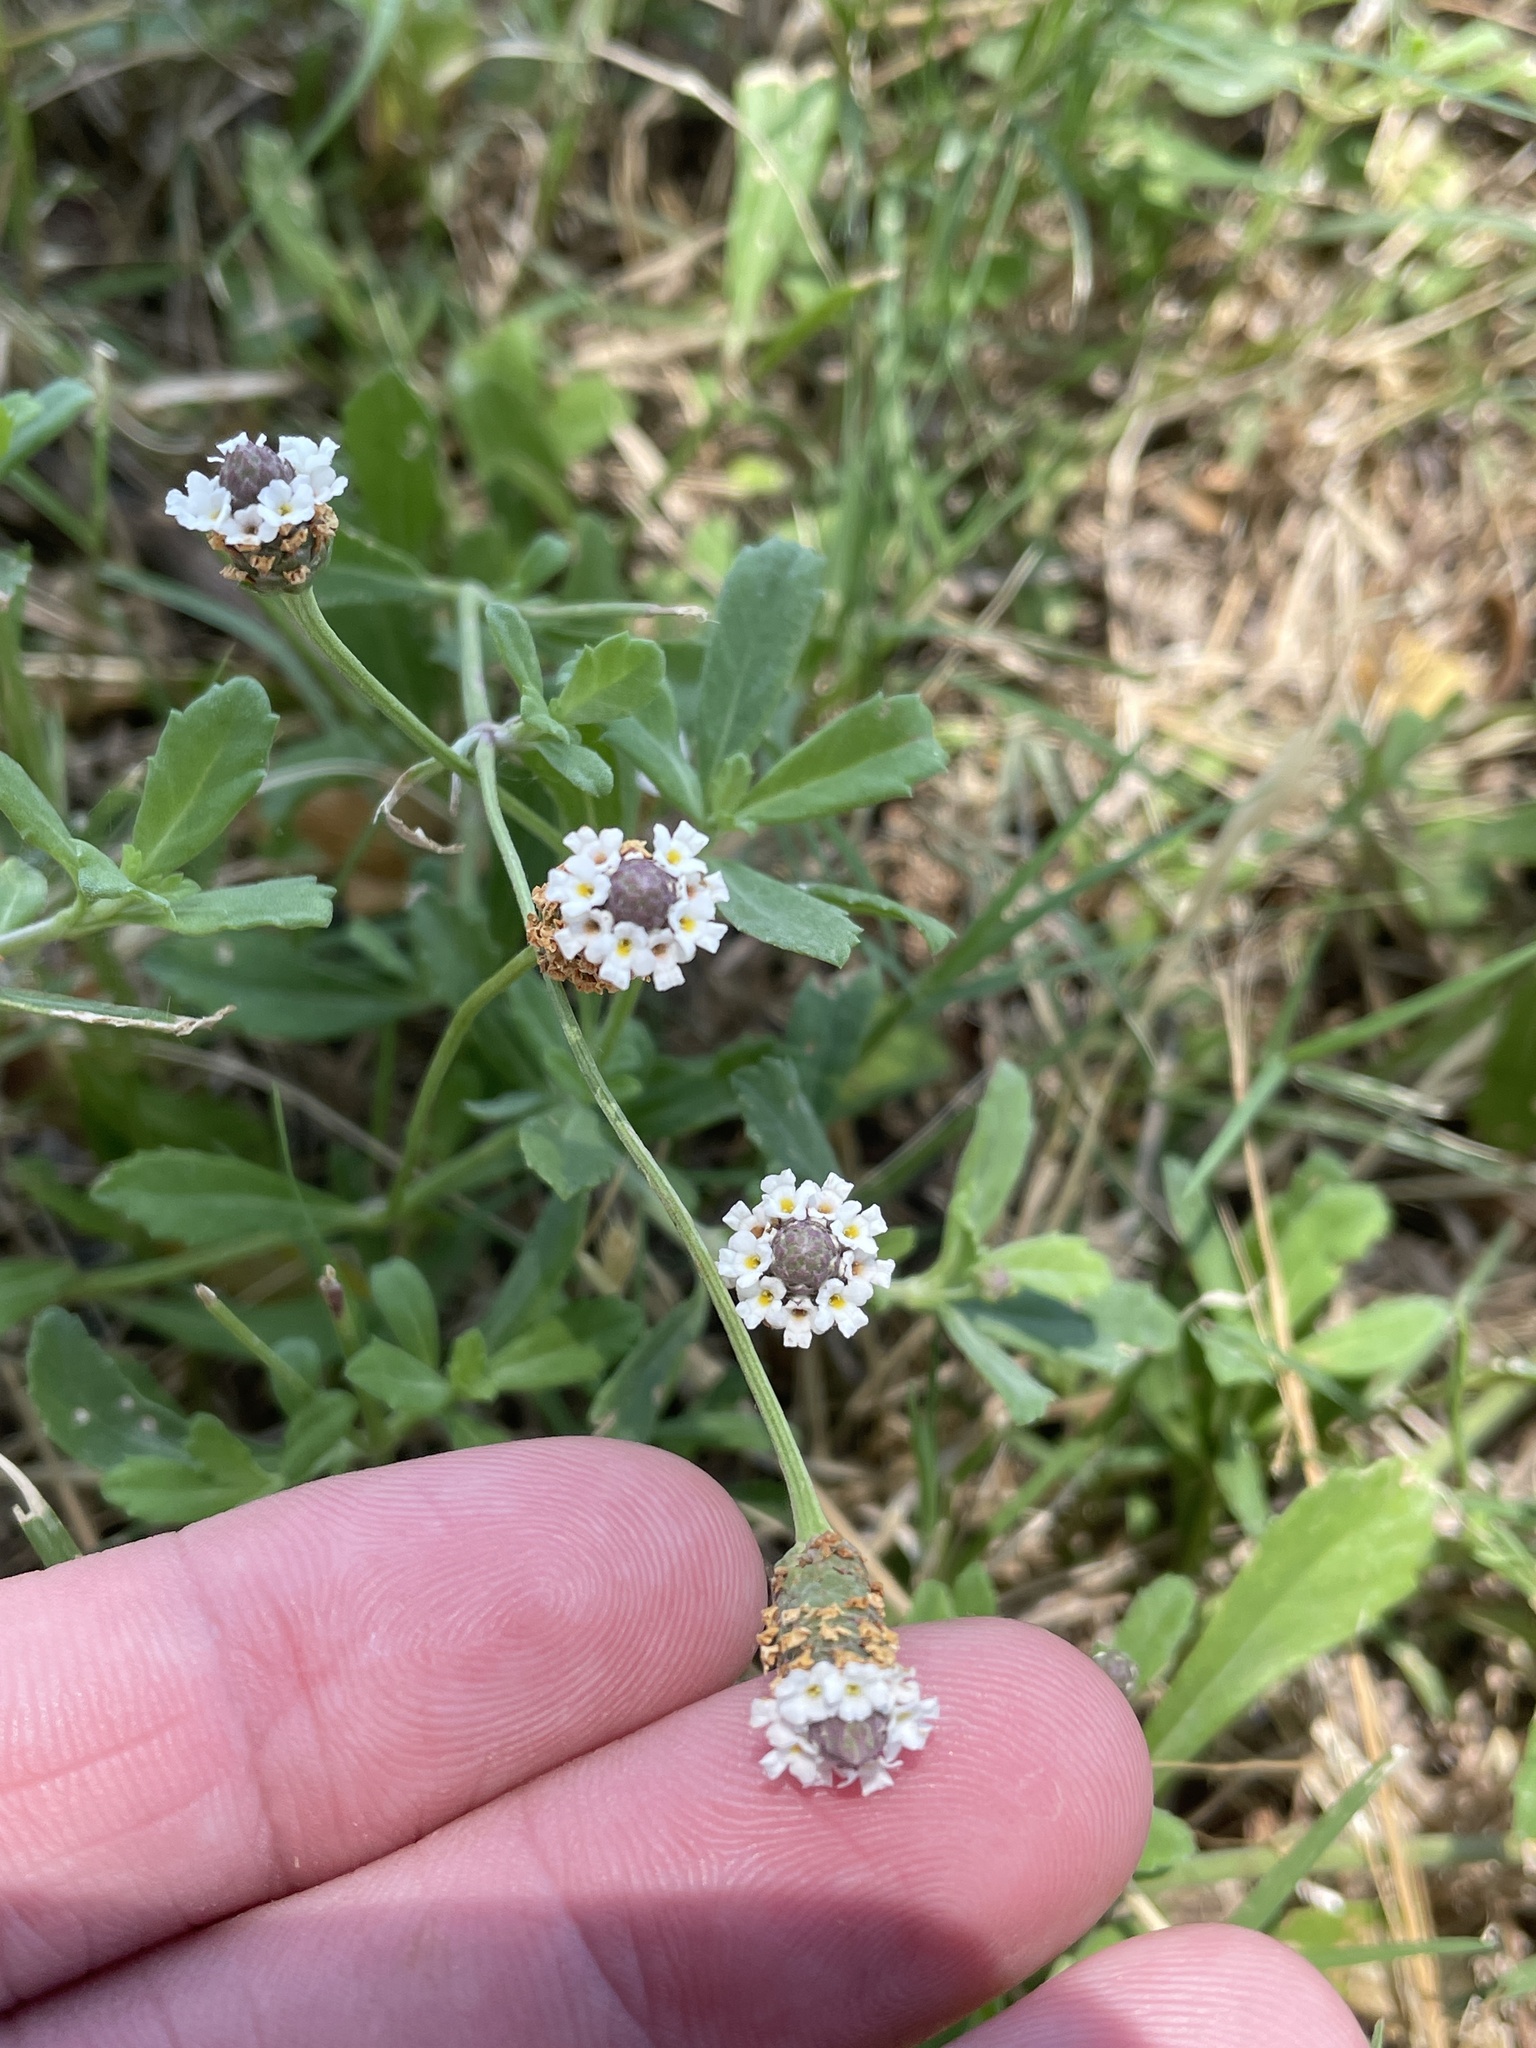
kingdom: Plantae
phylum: Tracheophyta
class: Magnoliopsida
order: Lamiales
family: Verbenaceae
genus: Phyla
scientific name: Phyla nodiflora
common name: Frogfruit
